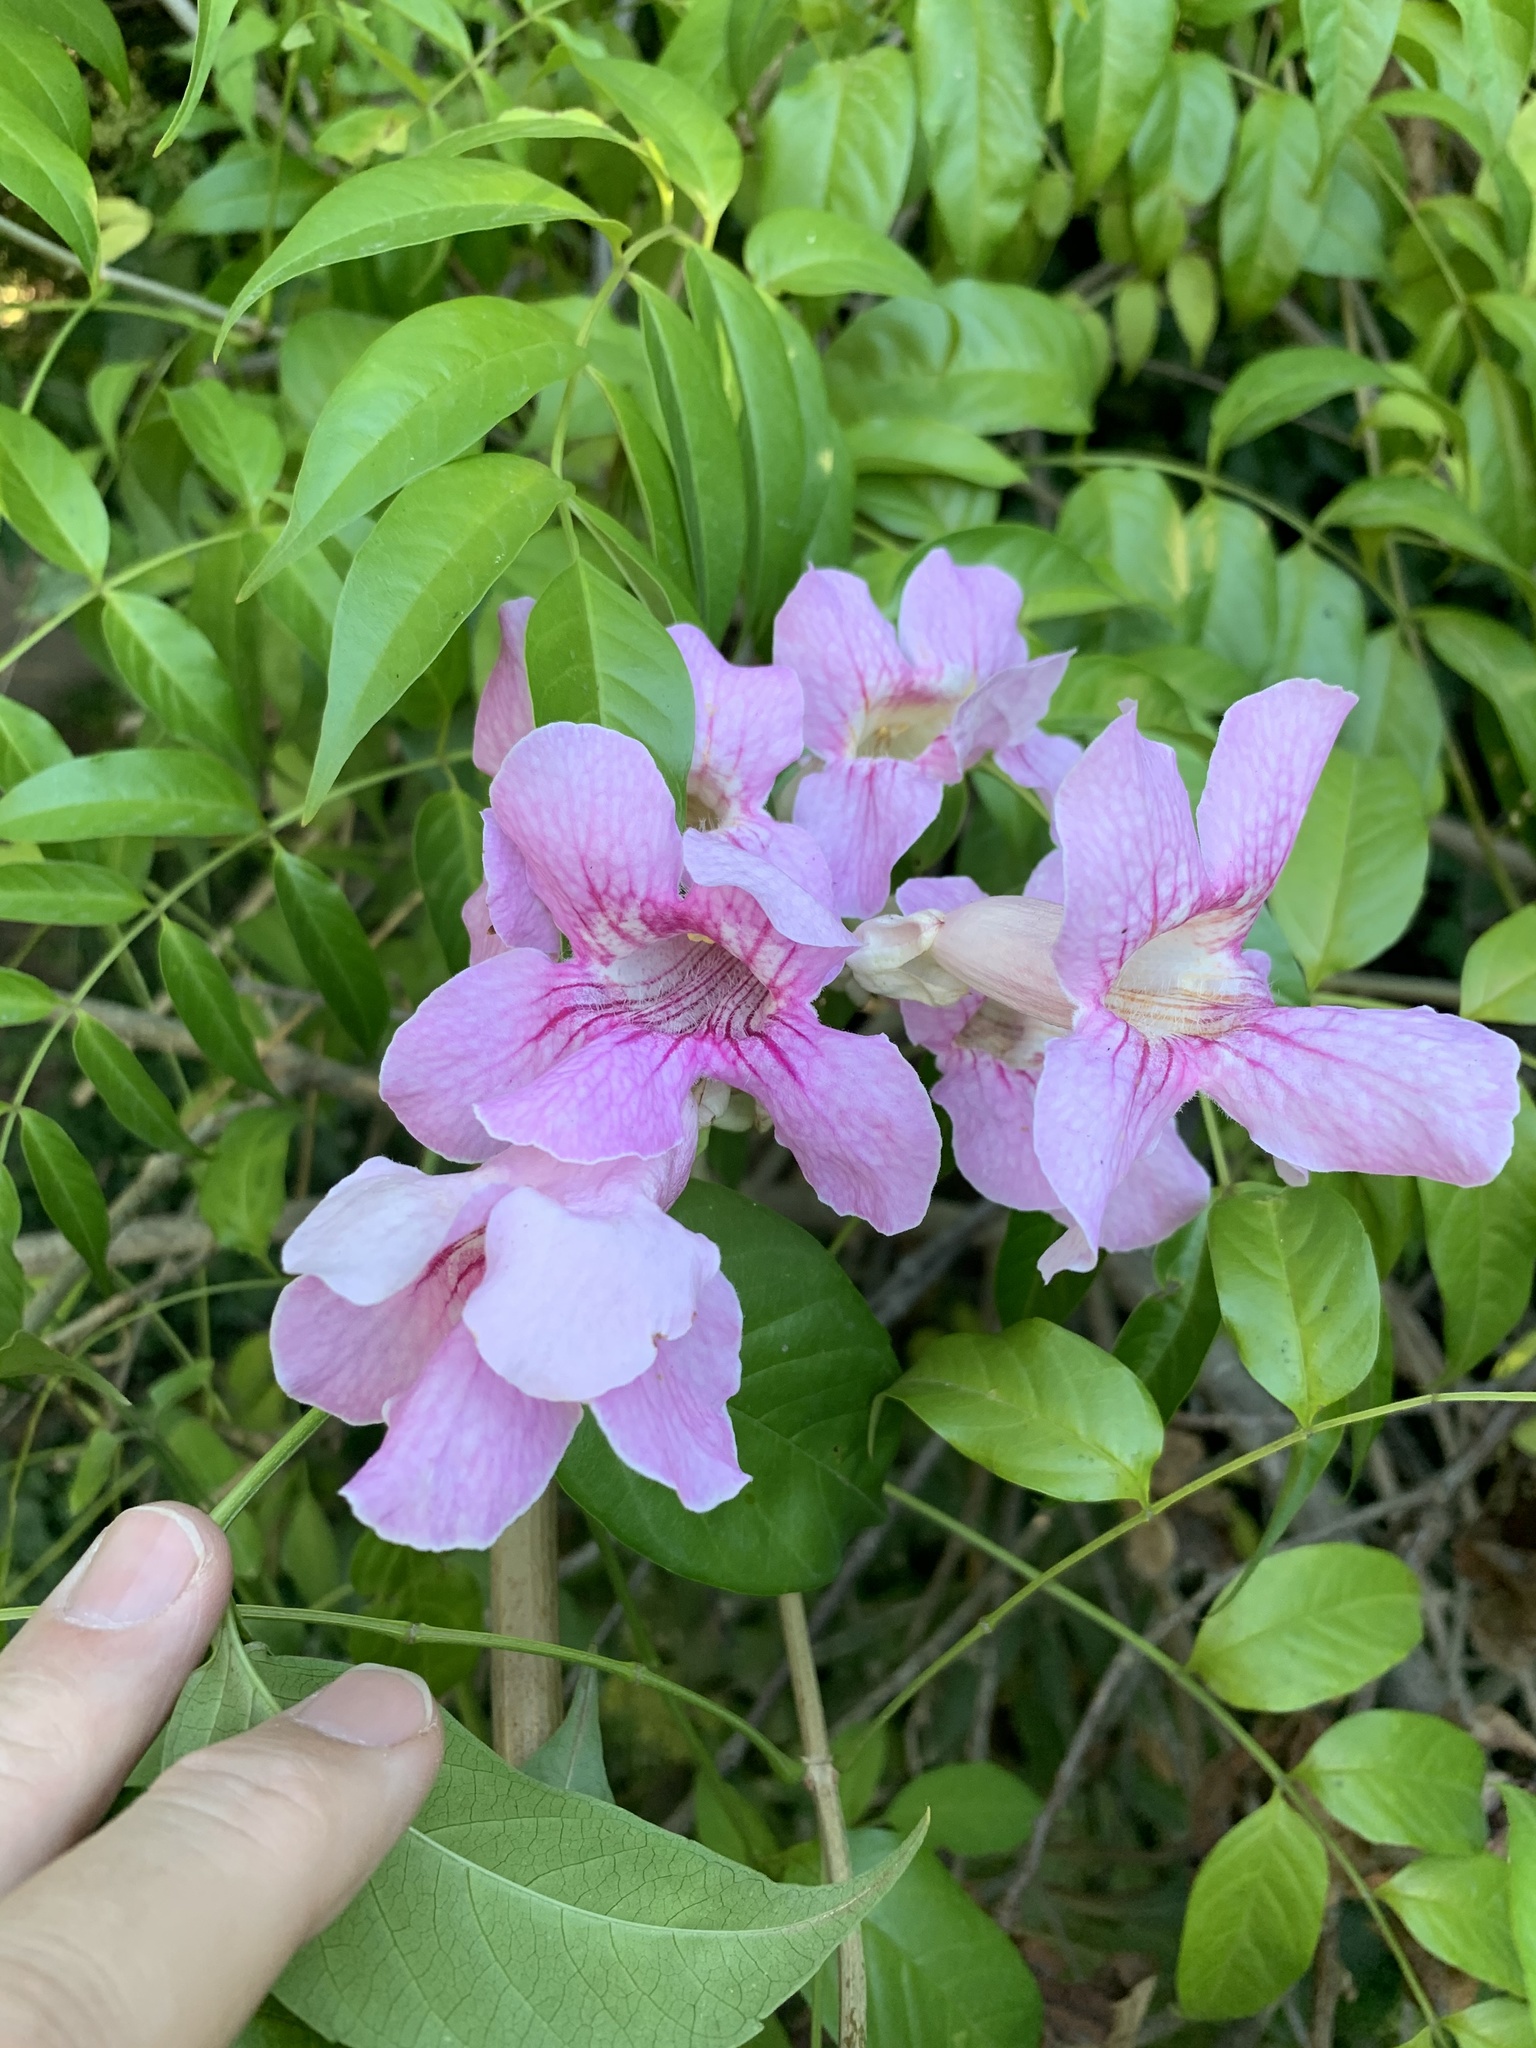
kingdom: Plantae
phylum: Tracheophyta
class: Magnoliopsida
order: Lamiales
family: Bignoniaceae
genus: Podranea
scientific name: Podranea ricasoliana
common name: Zimbabwe creeper
